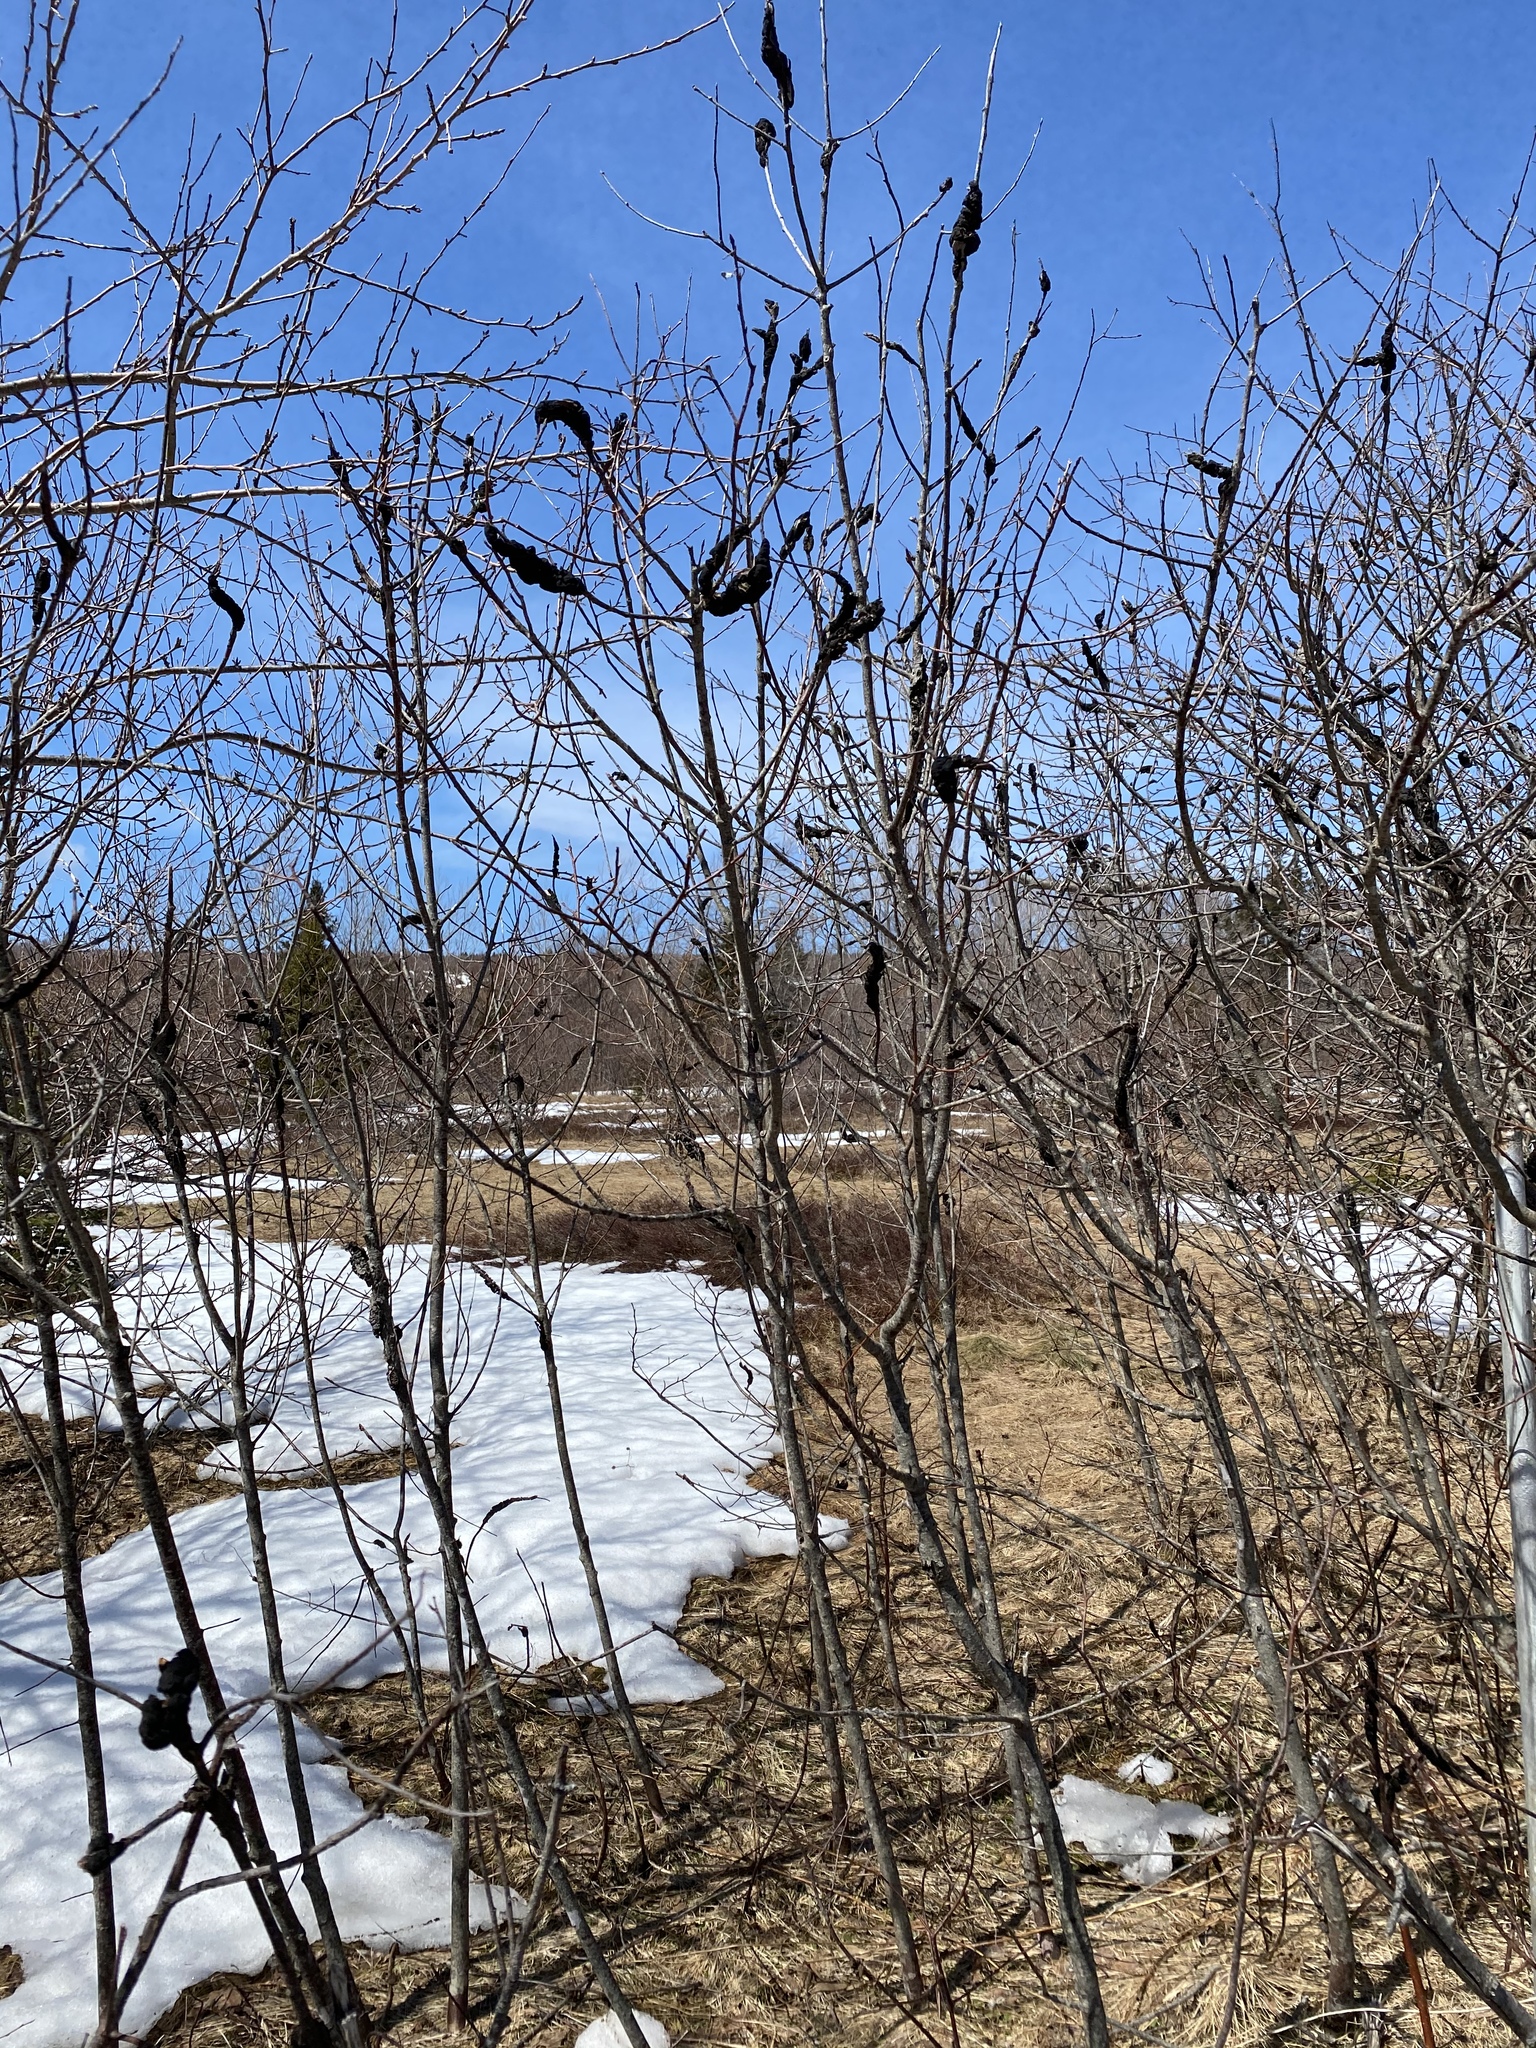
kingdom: Fungi
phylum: Ascomycota
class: Dothideomycetes
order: Venturiales
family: Venturiaceae
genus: Apiosporina
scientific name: Apiosporina morbosa
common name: Black knot
